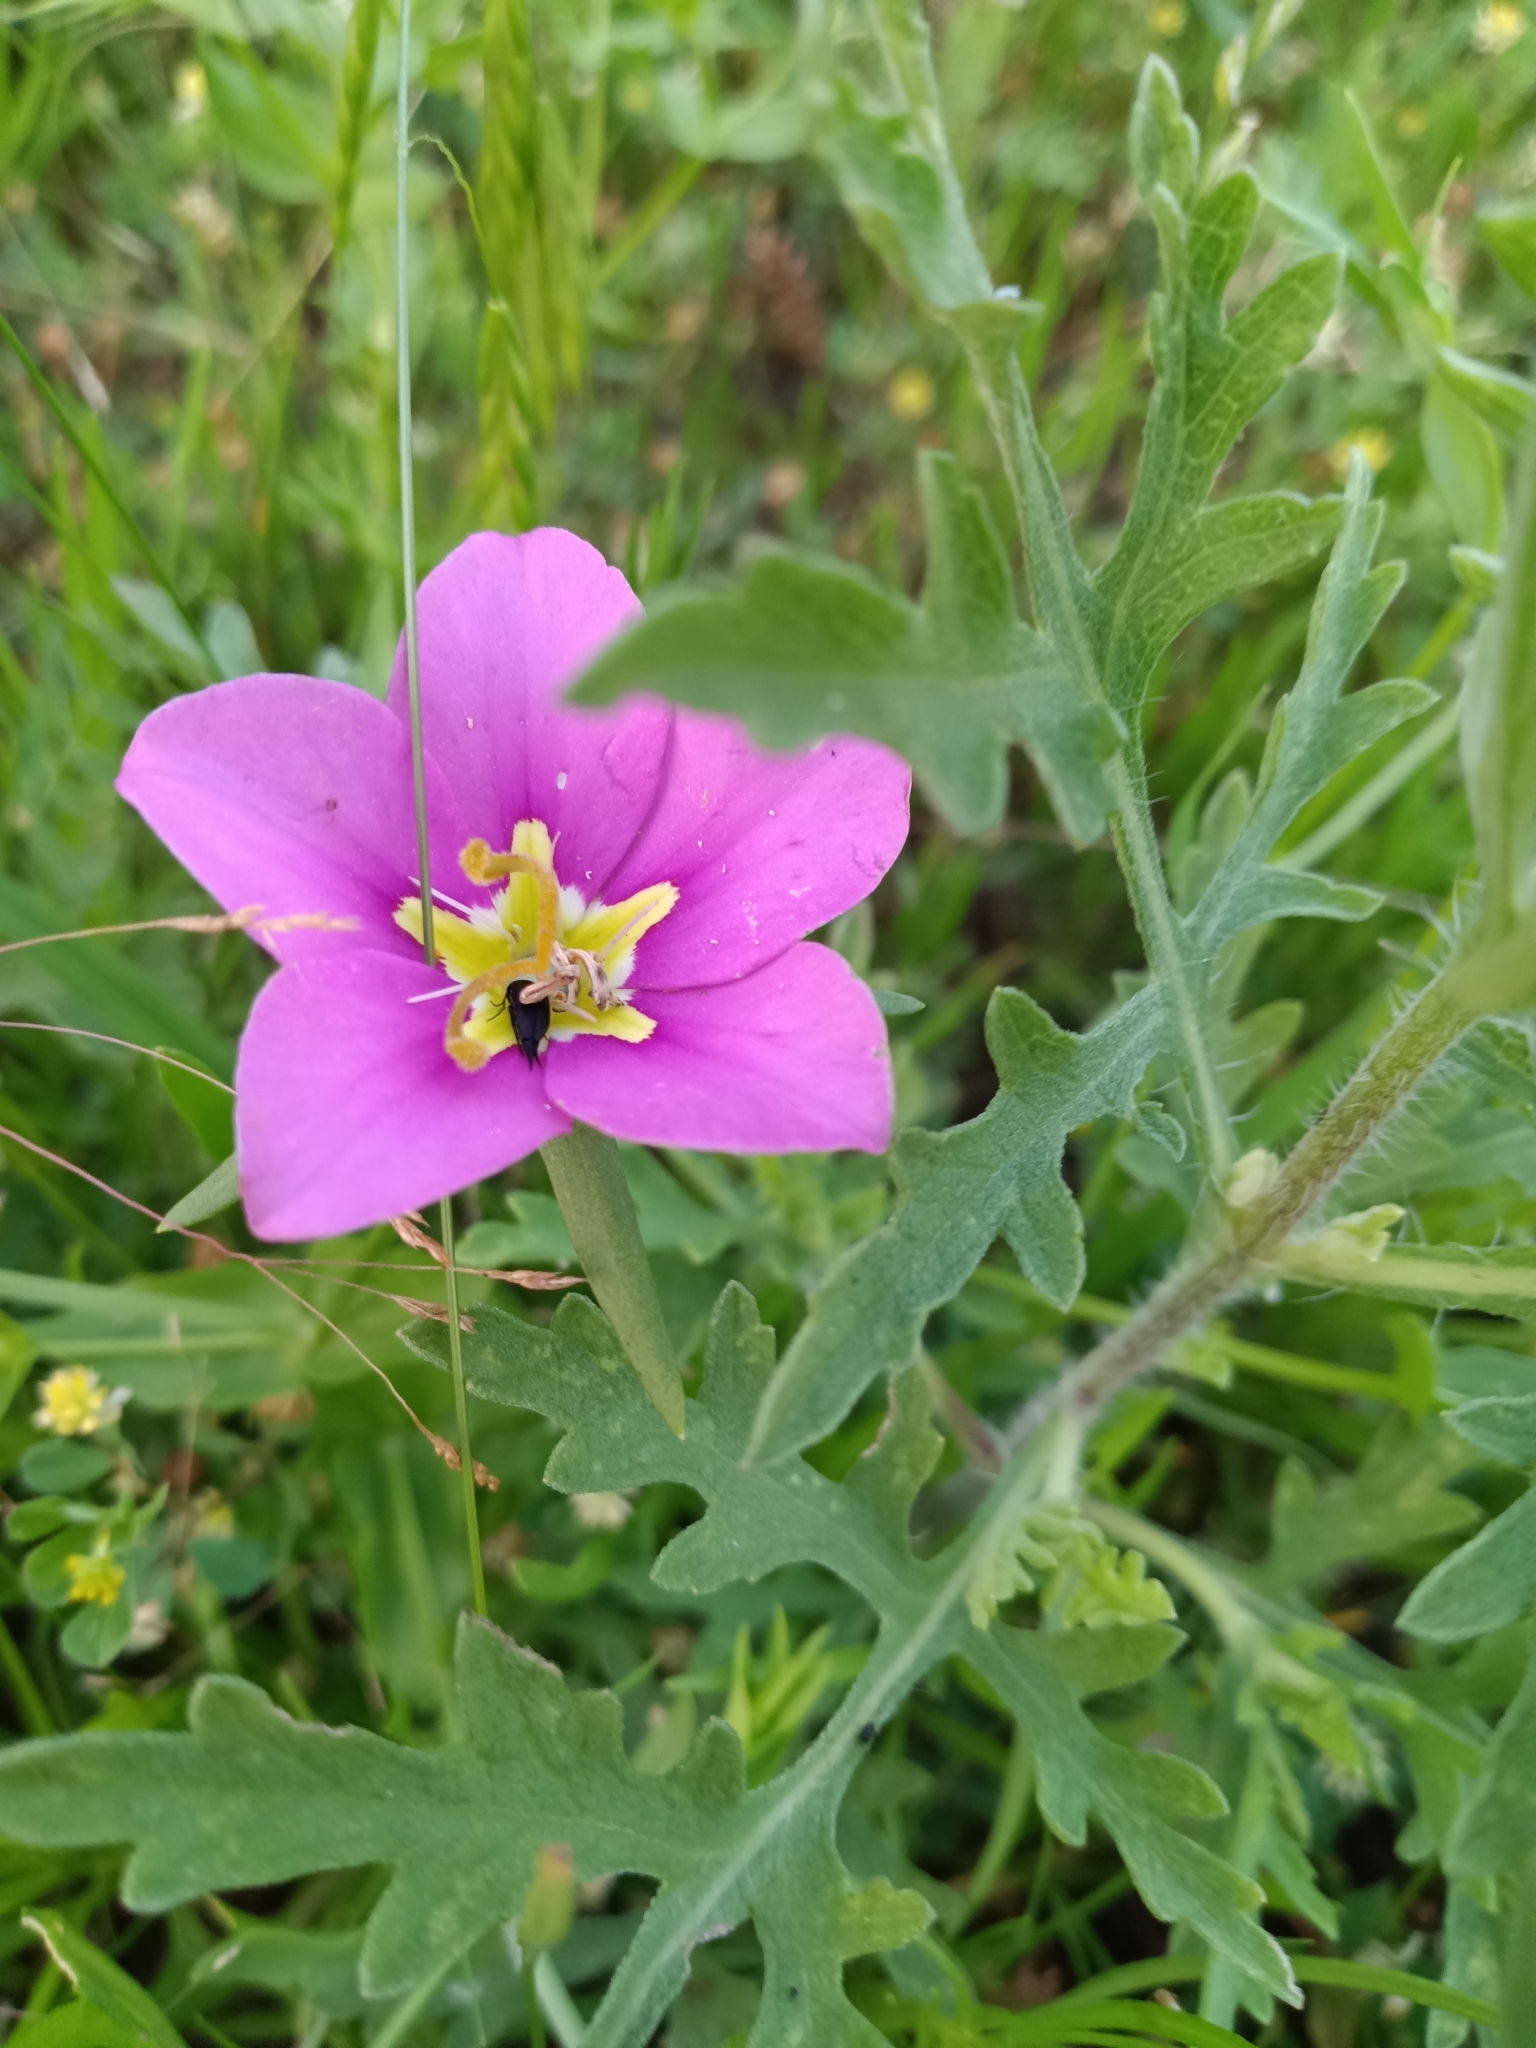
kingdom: Plantae
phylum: Tracheophyta
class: Magnoliopsida
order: Gentianales
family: Gentianaceae
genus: Sabatia
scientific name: Sabatia campestris
